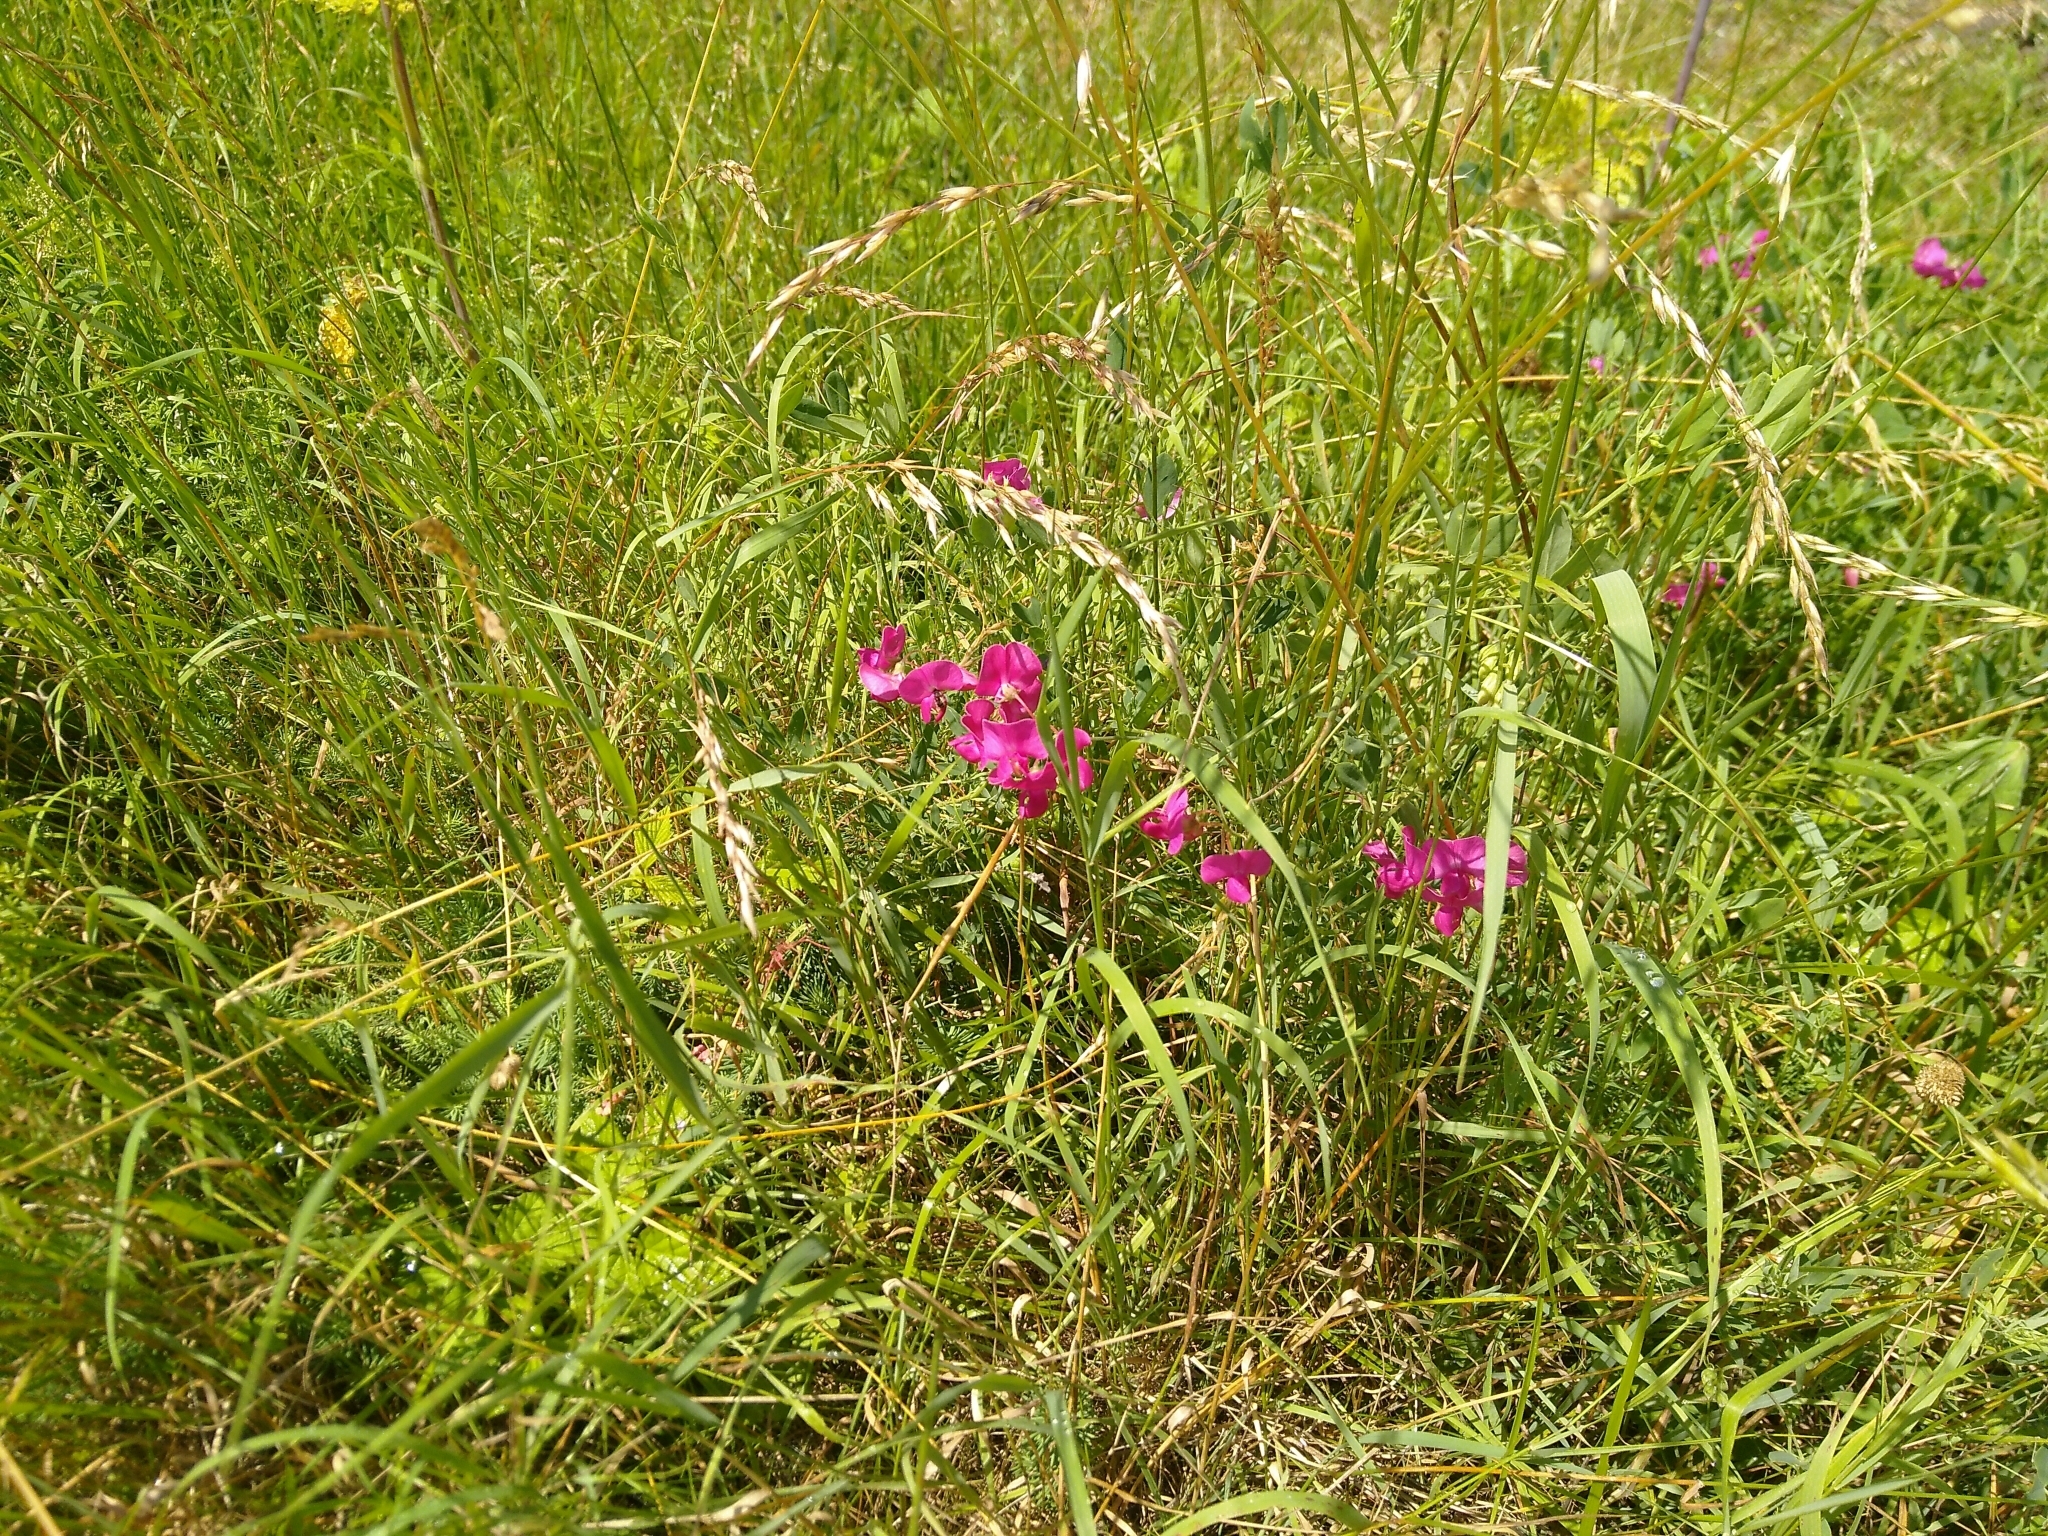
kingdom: Plantae
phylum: Tracheophyta
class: Magnoliopsida
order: Fabales
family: Fabaceae
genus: Lathyrus
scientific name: Lathyrus tuberosus
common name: Tuberous pea
